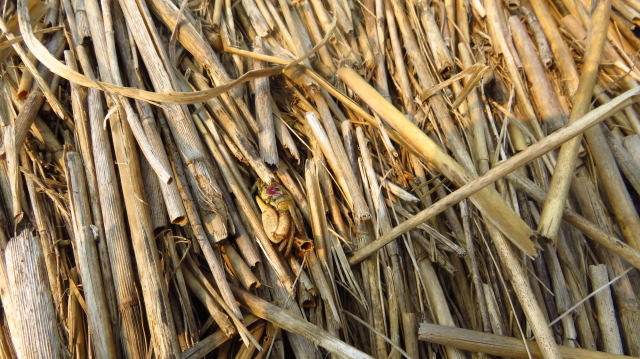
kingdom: Animalia
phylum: Arthropoda
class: Malacostraca
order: Decapoda
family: Ocypodidae
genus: Leptuca
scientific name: Leptuca pugilator
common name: Atlantic sand fiddler crab
